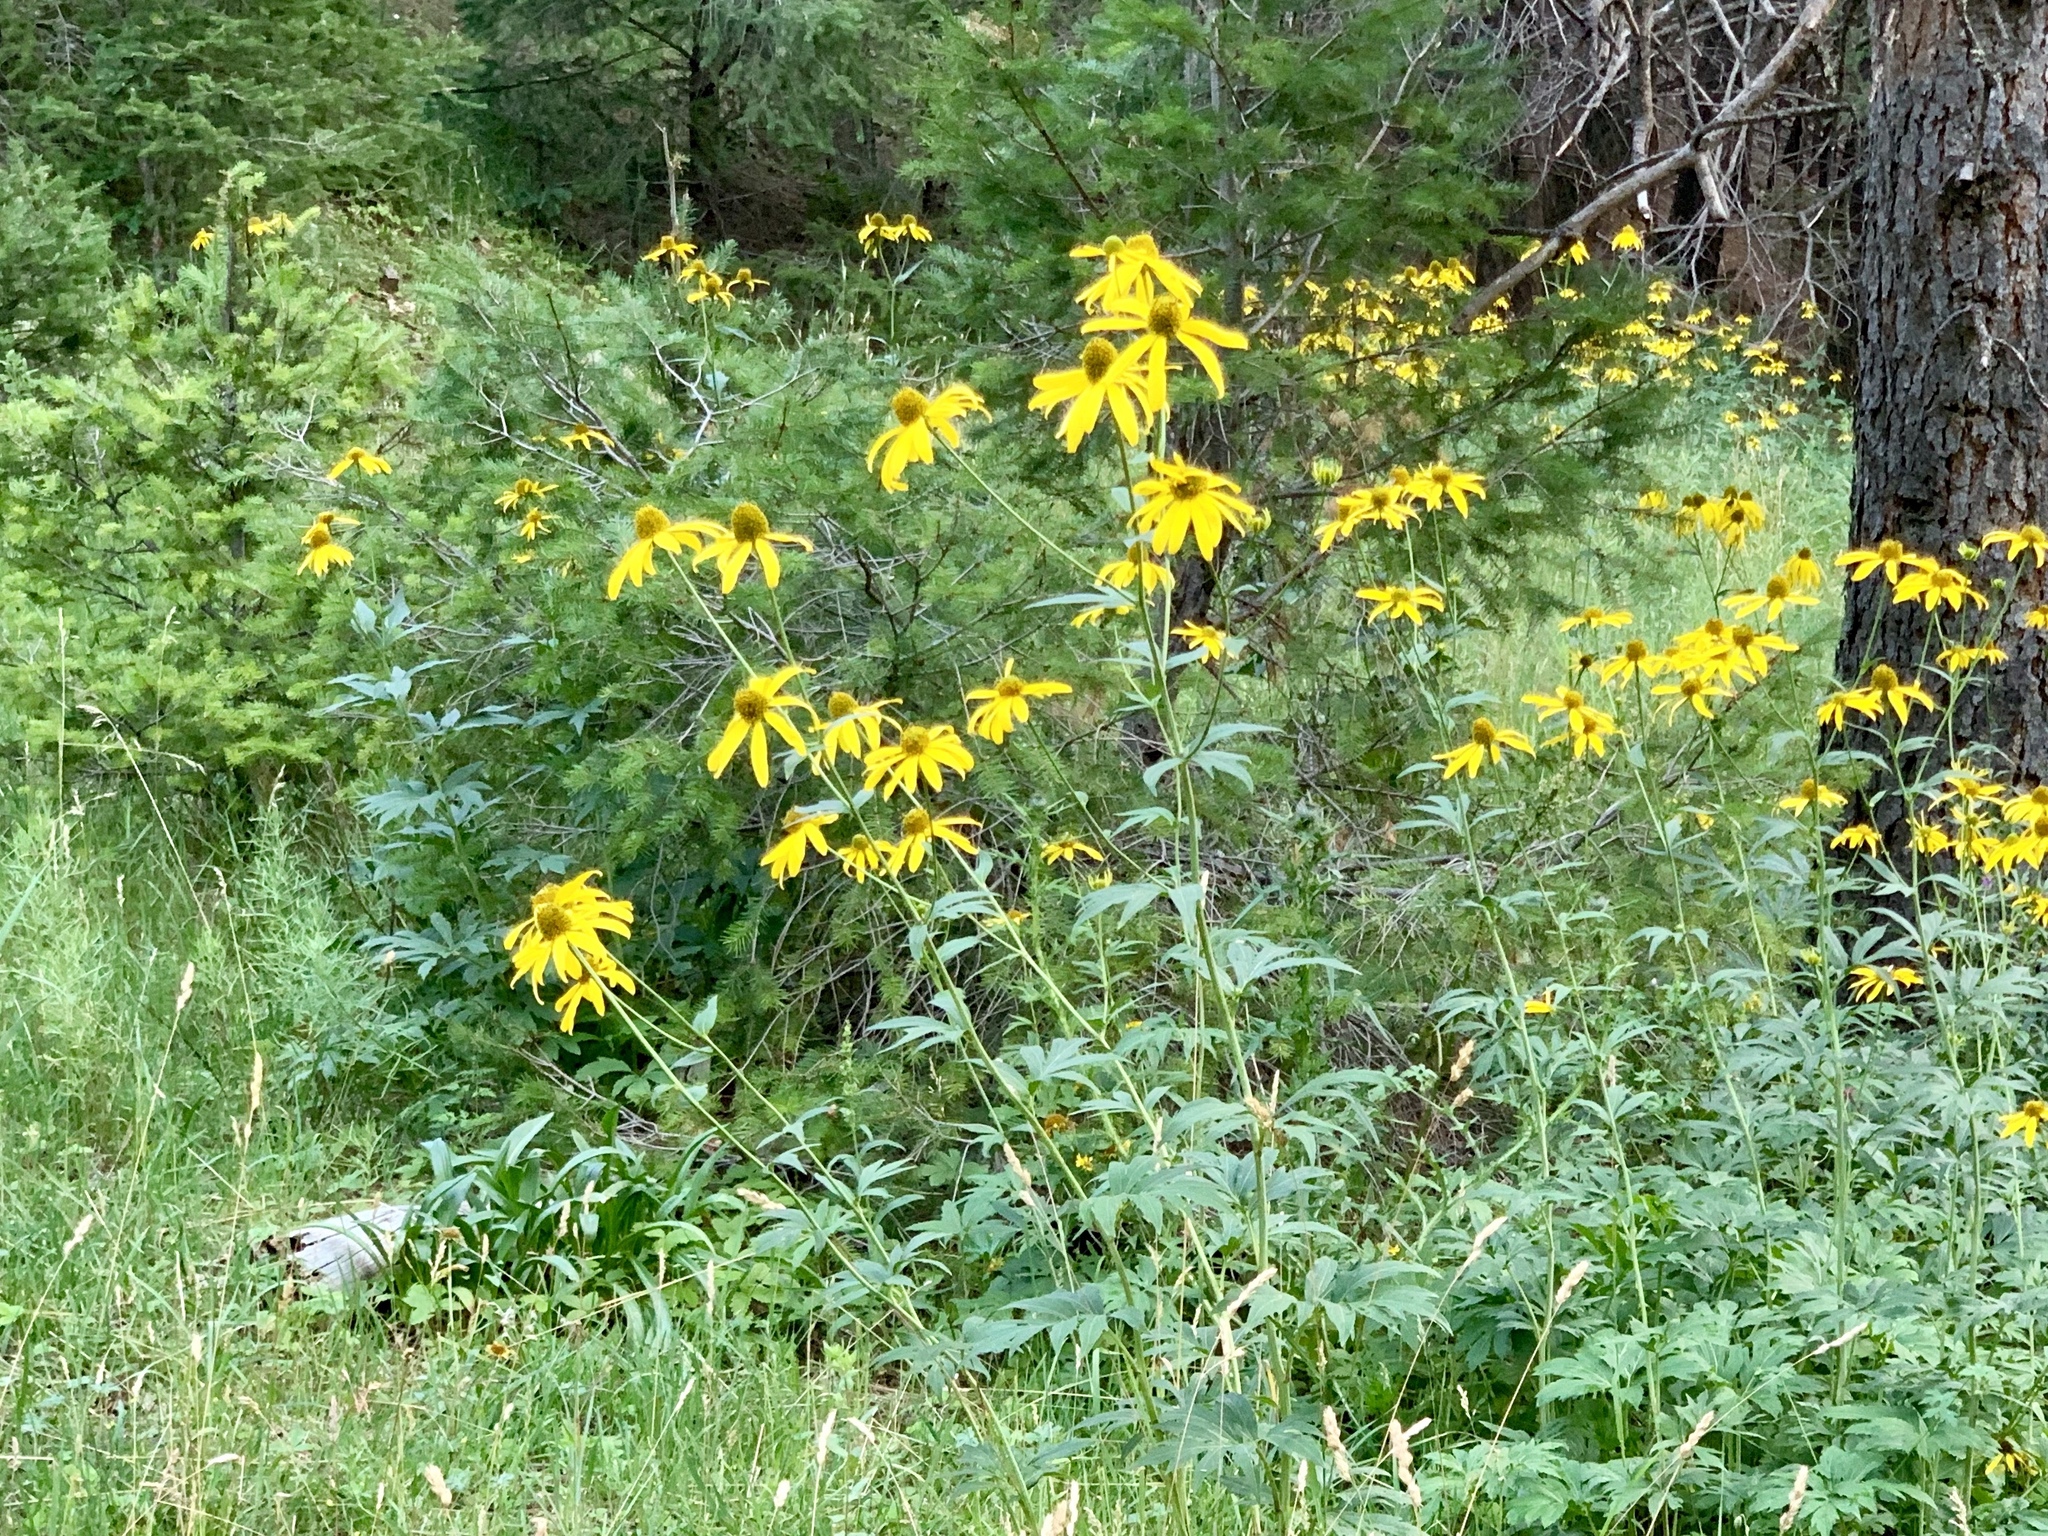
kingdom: Plantae
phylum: Tracheophyta
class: Magnoliopsida
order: Asterales
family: Asteraceae
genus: Rudbeckia
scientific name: Rudbeckia laciniata
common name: Coneflower
